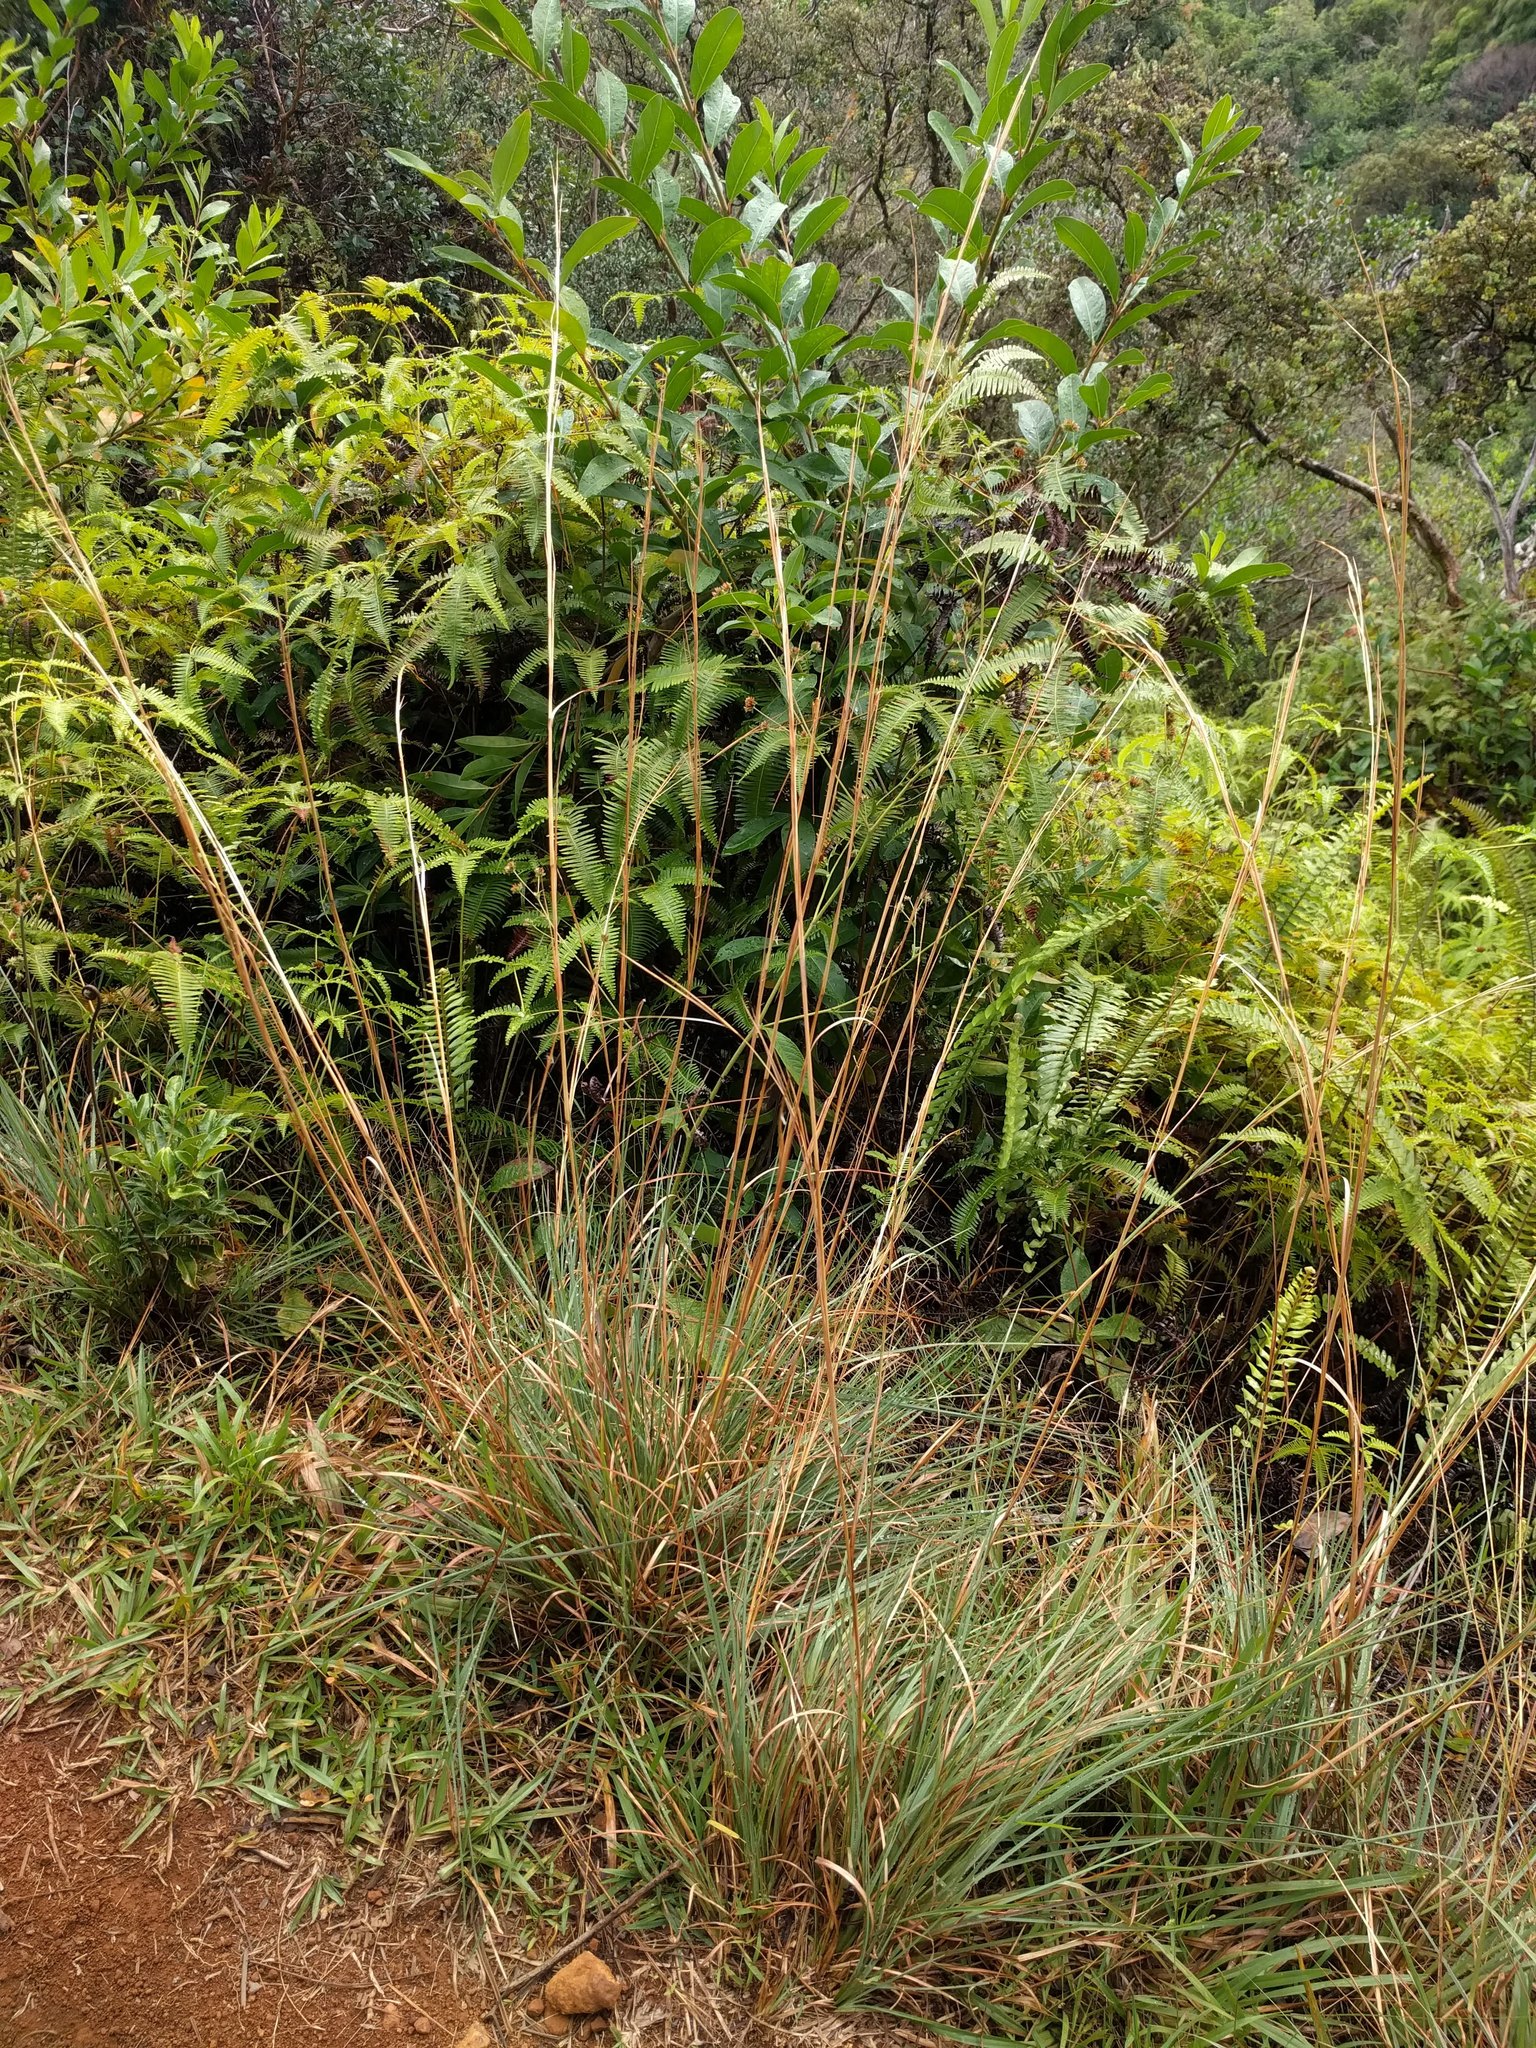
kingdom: Plantae
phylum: Tracheophyta
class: Liliopsida
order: Poales
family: Poaceae
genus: Andropogon
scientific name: Andropogon virginicus
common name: Broomsedge bluestem
